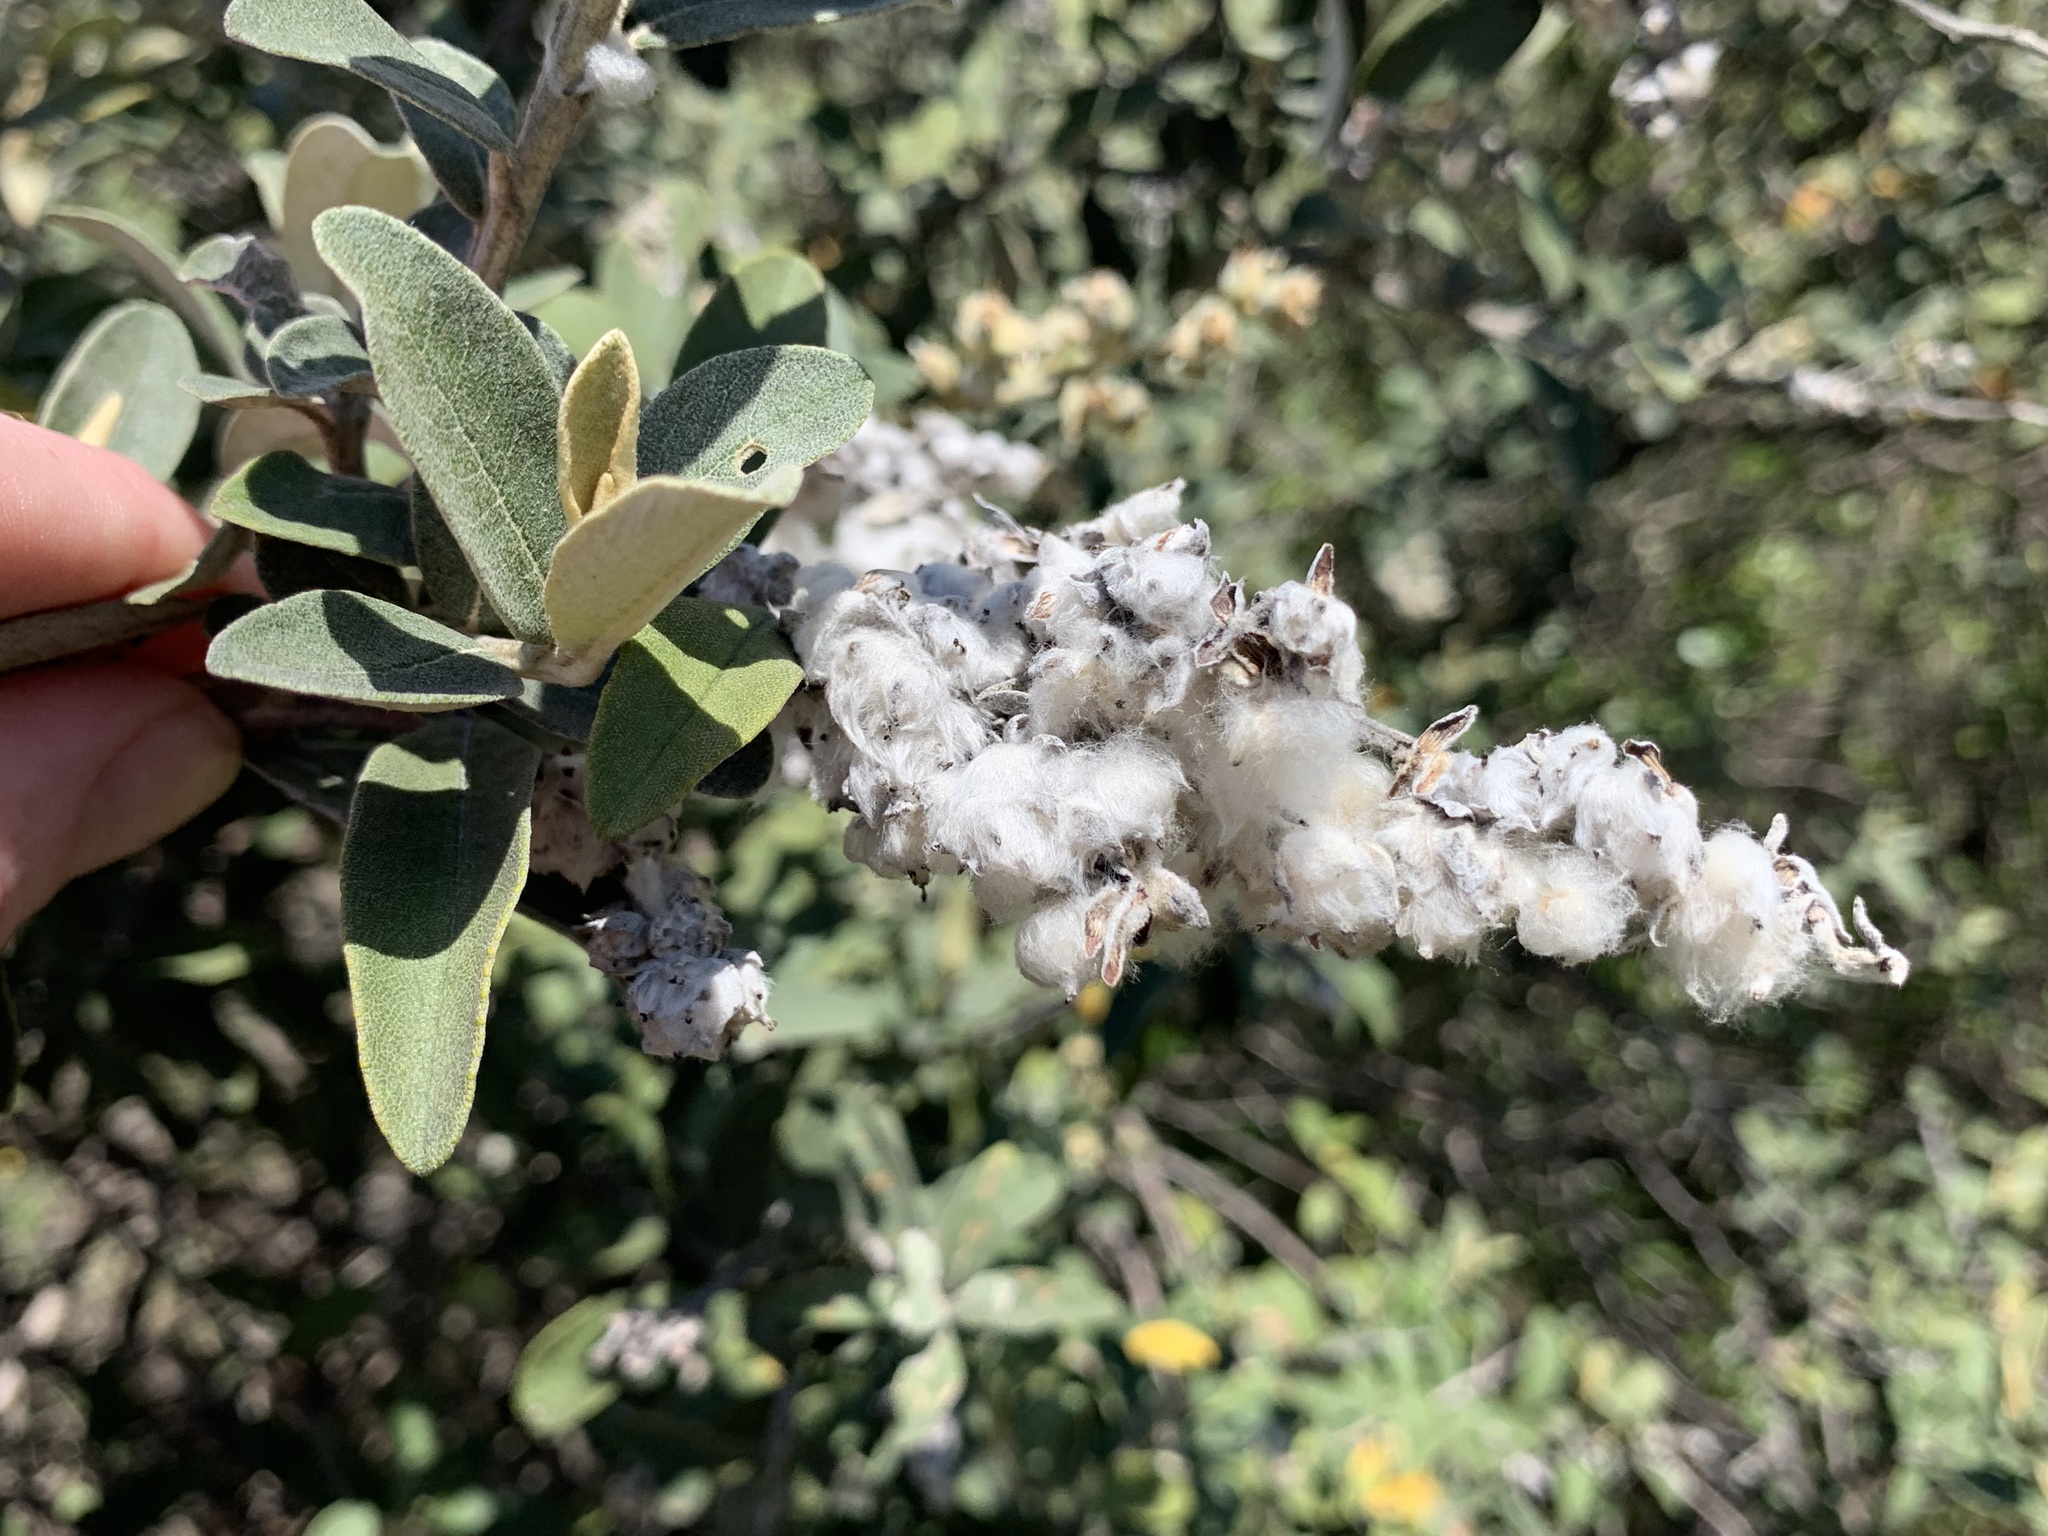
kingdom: Plantae
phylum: Tracheophyta
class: Magnoliopsida
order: Asterales
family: Asteraceae
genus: Tarchonanthus
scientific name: Tarchonanthus littoralis
